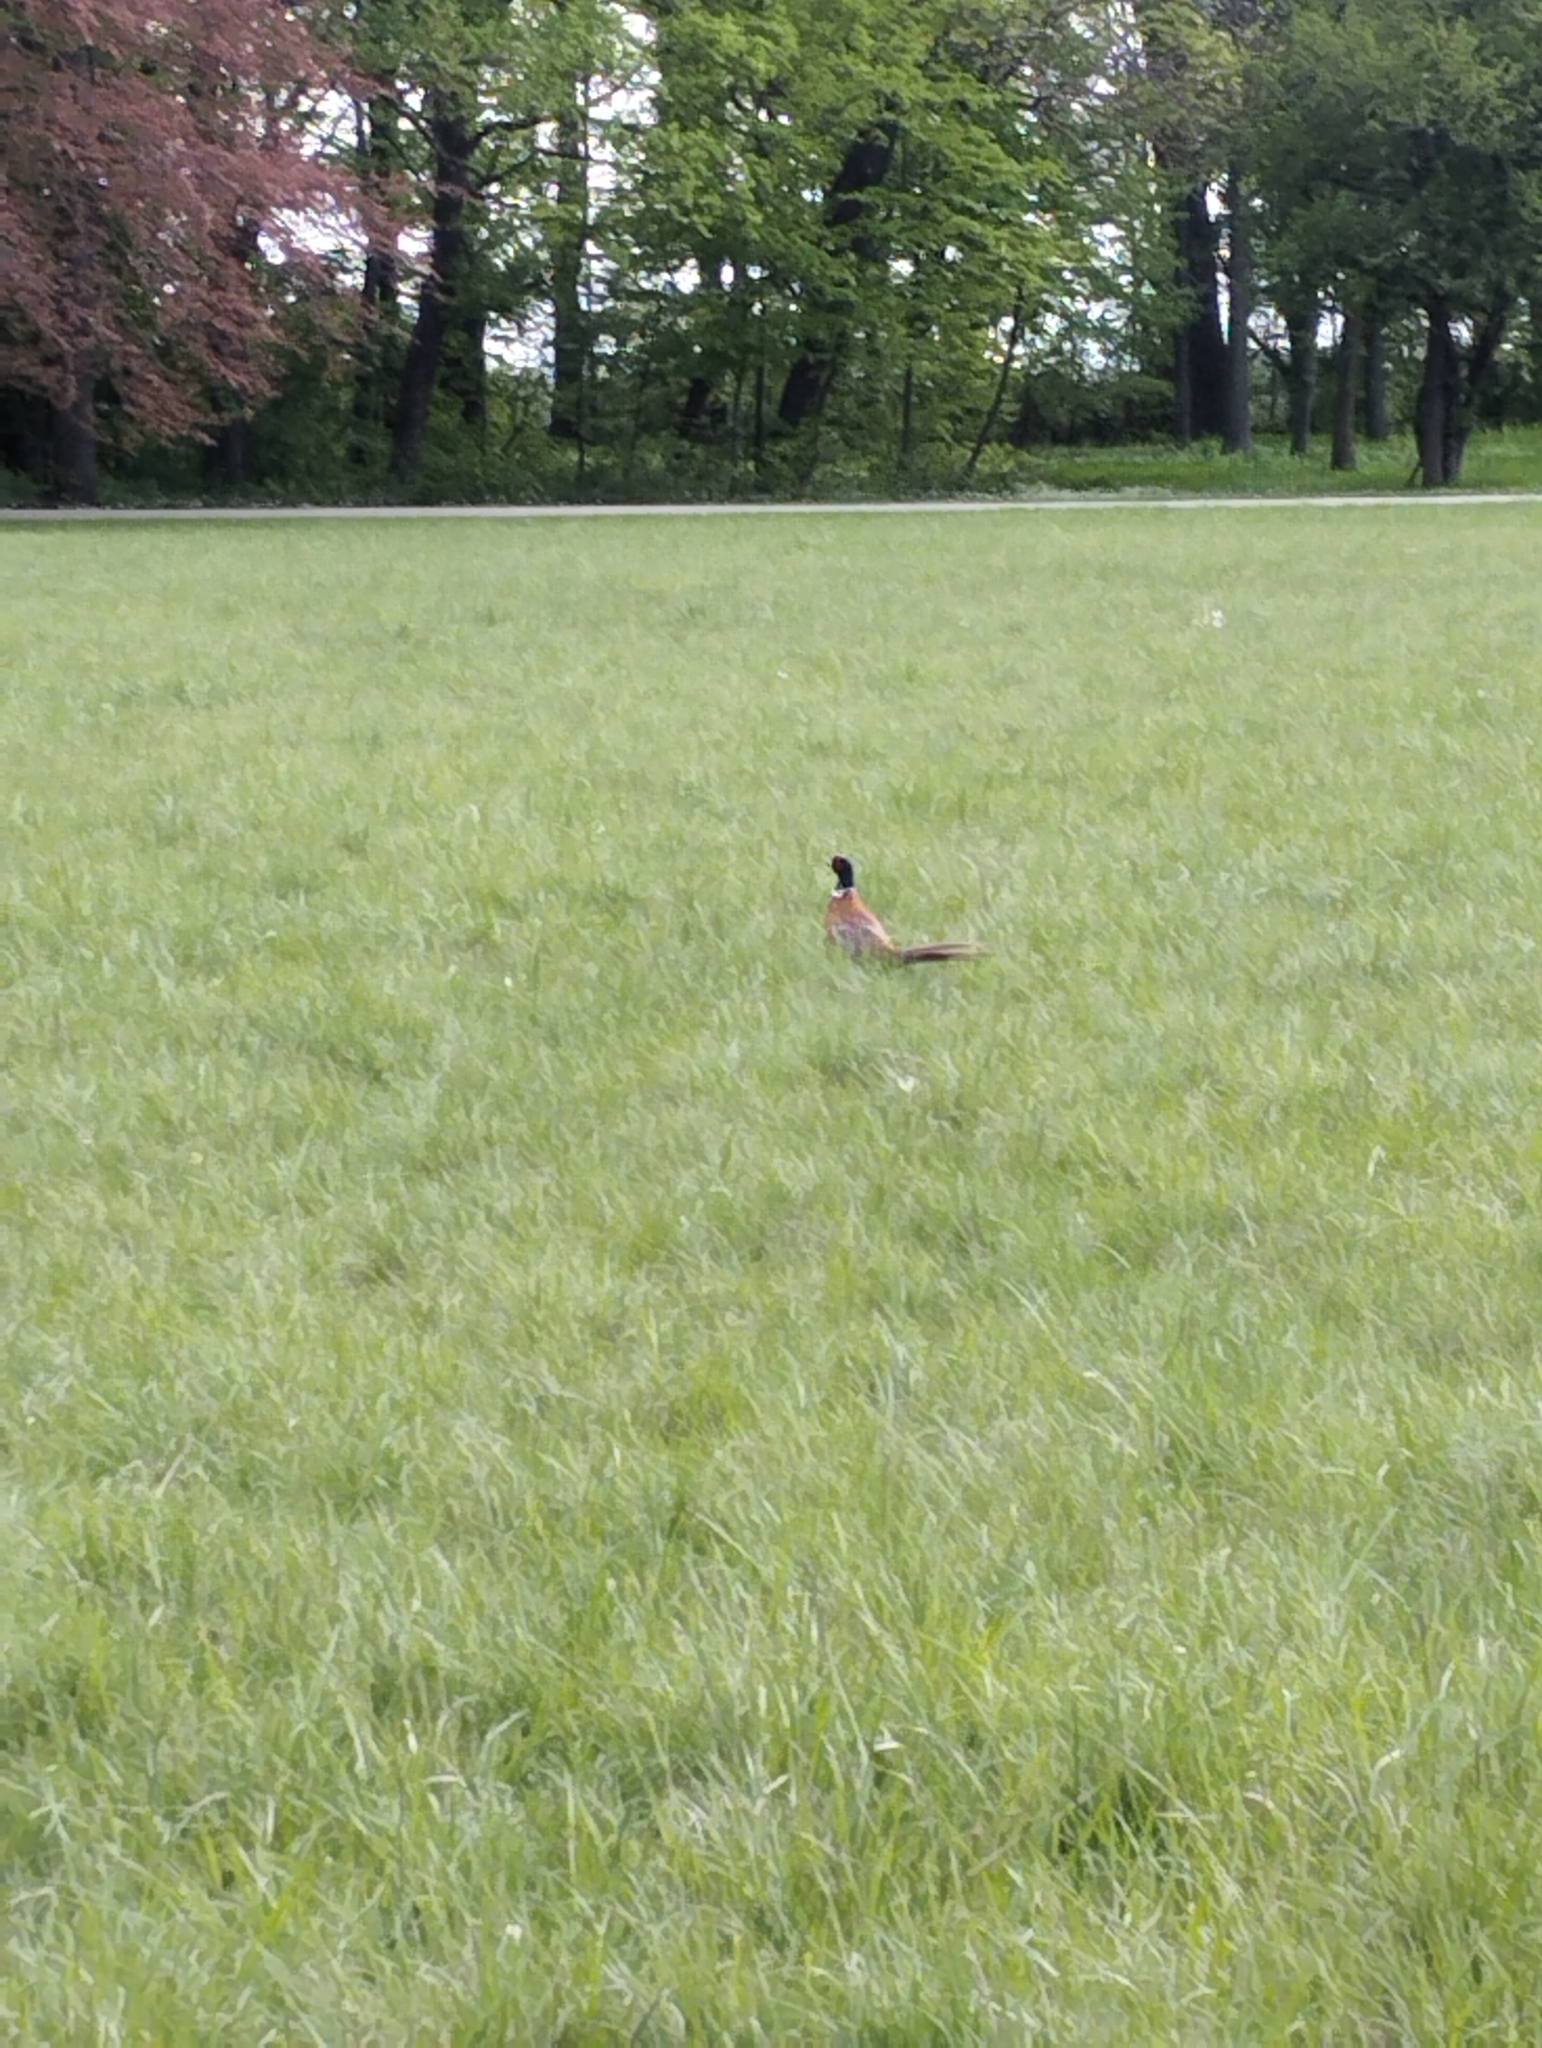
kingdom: Animalia
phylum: Chordata
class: Aves
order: Galliformes
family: Phasianidae
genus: Phasianus
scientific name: Phasianus colchicus
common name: Common pheasant
